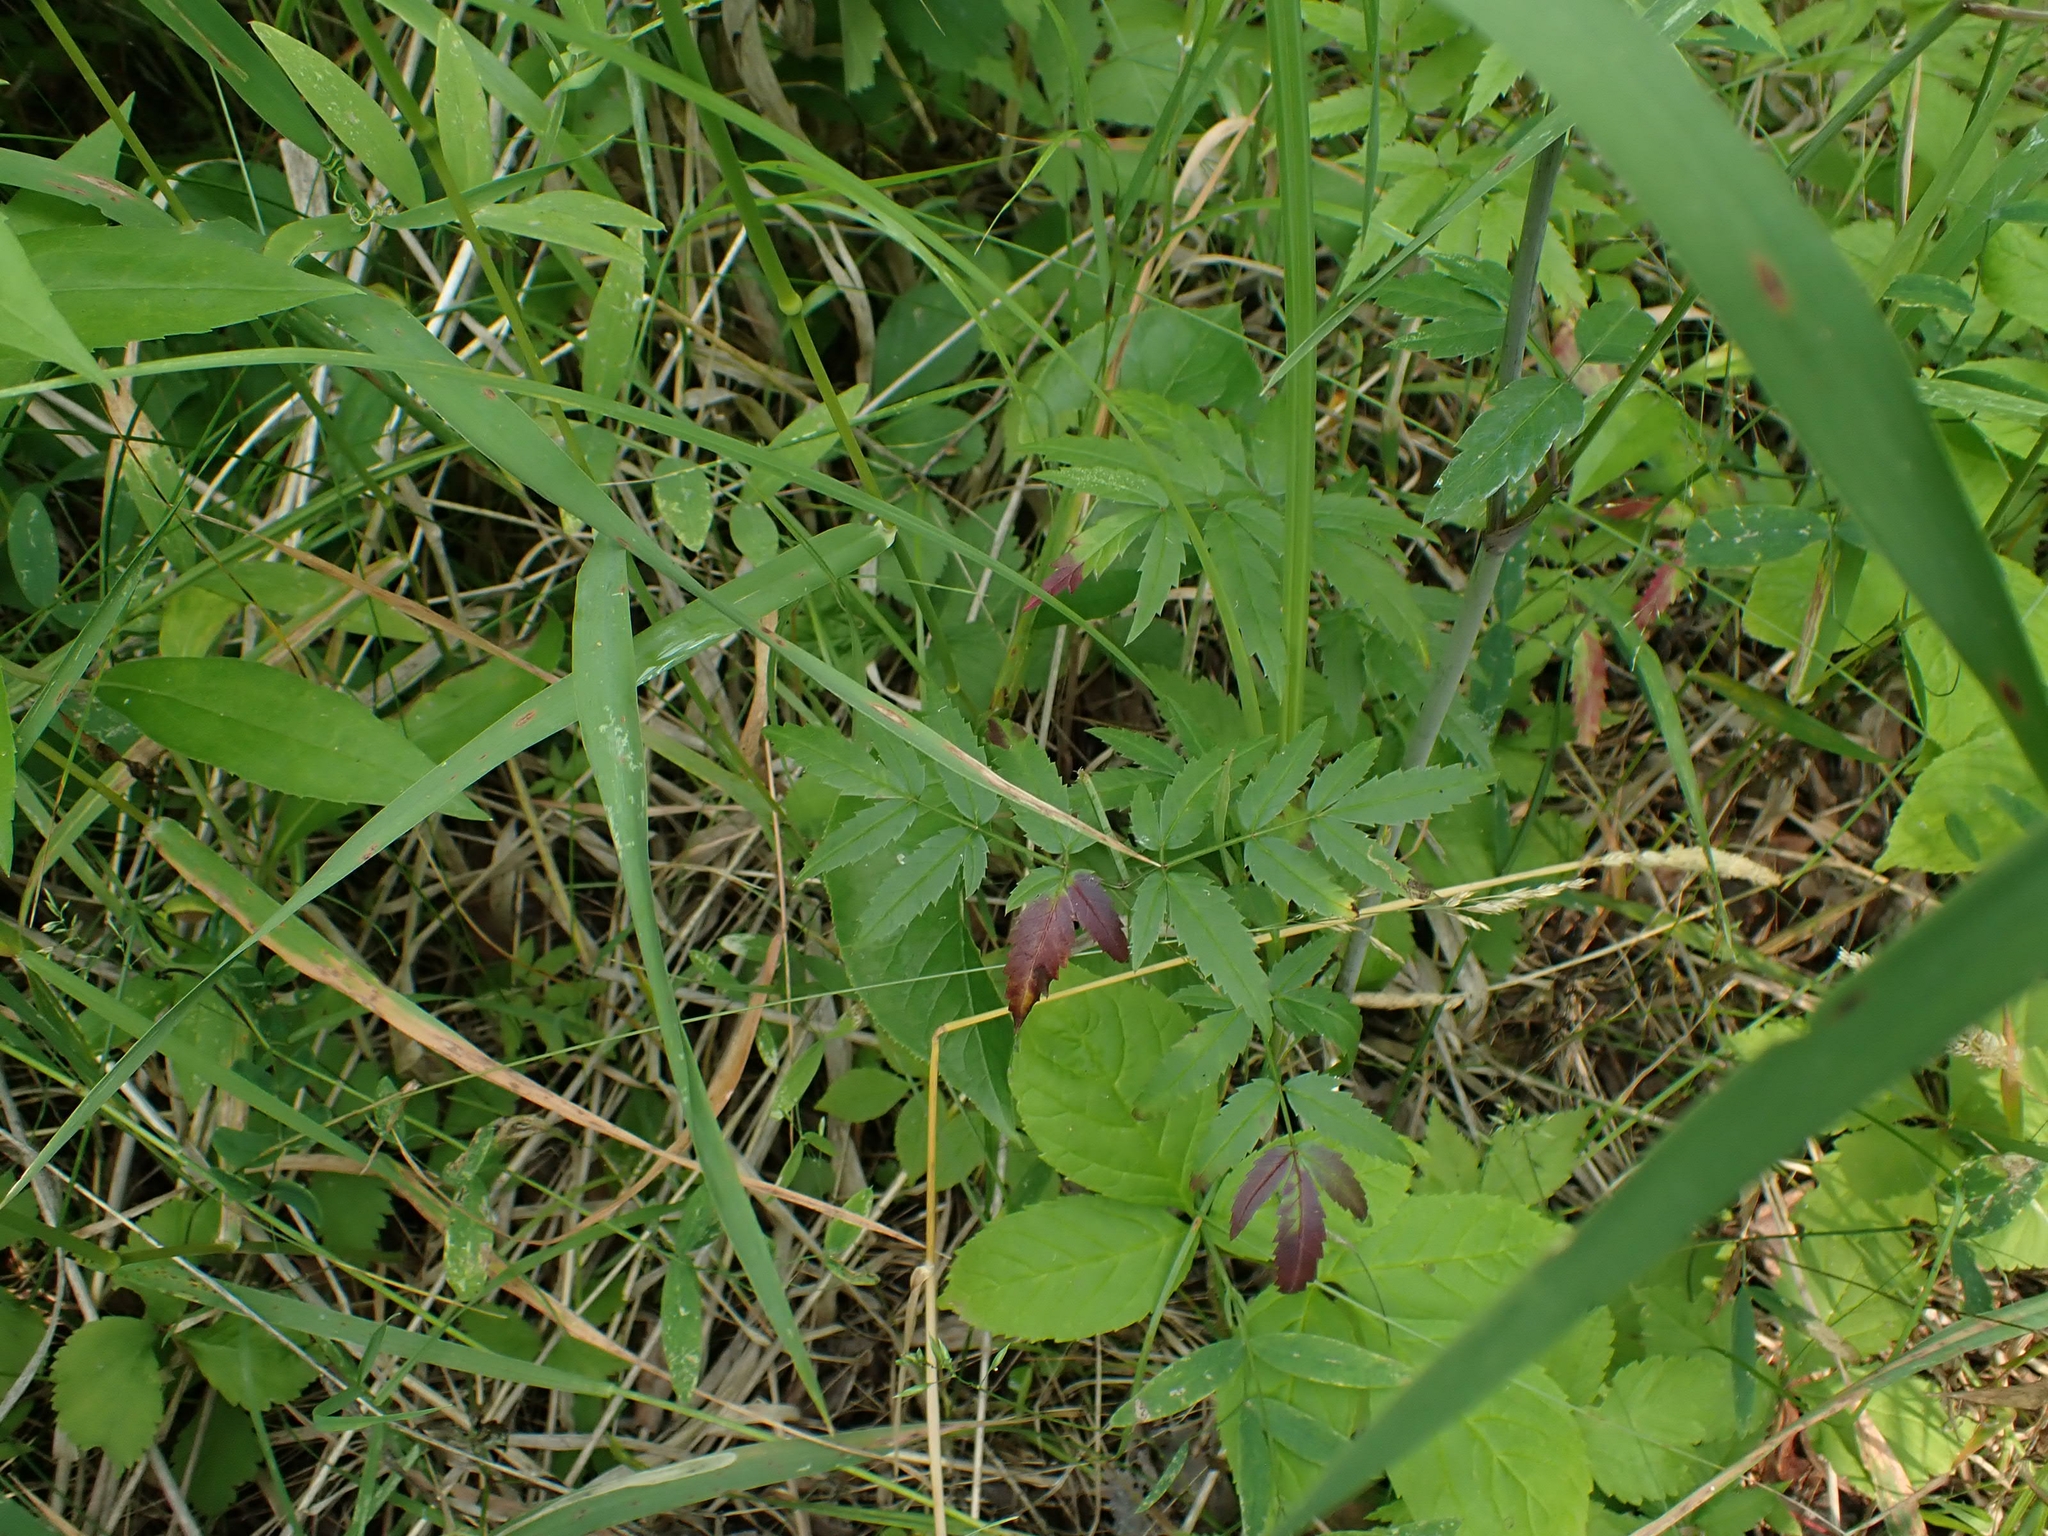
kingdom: Plantae
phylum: Tracheophyta
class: Magnoliopsida
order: Apiales
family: Apiaceae
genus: Cicuta
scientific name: Cicuta maculata
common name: Spotted cowbane
